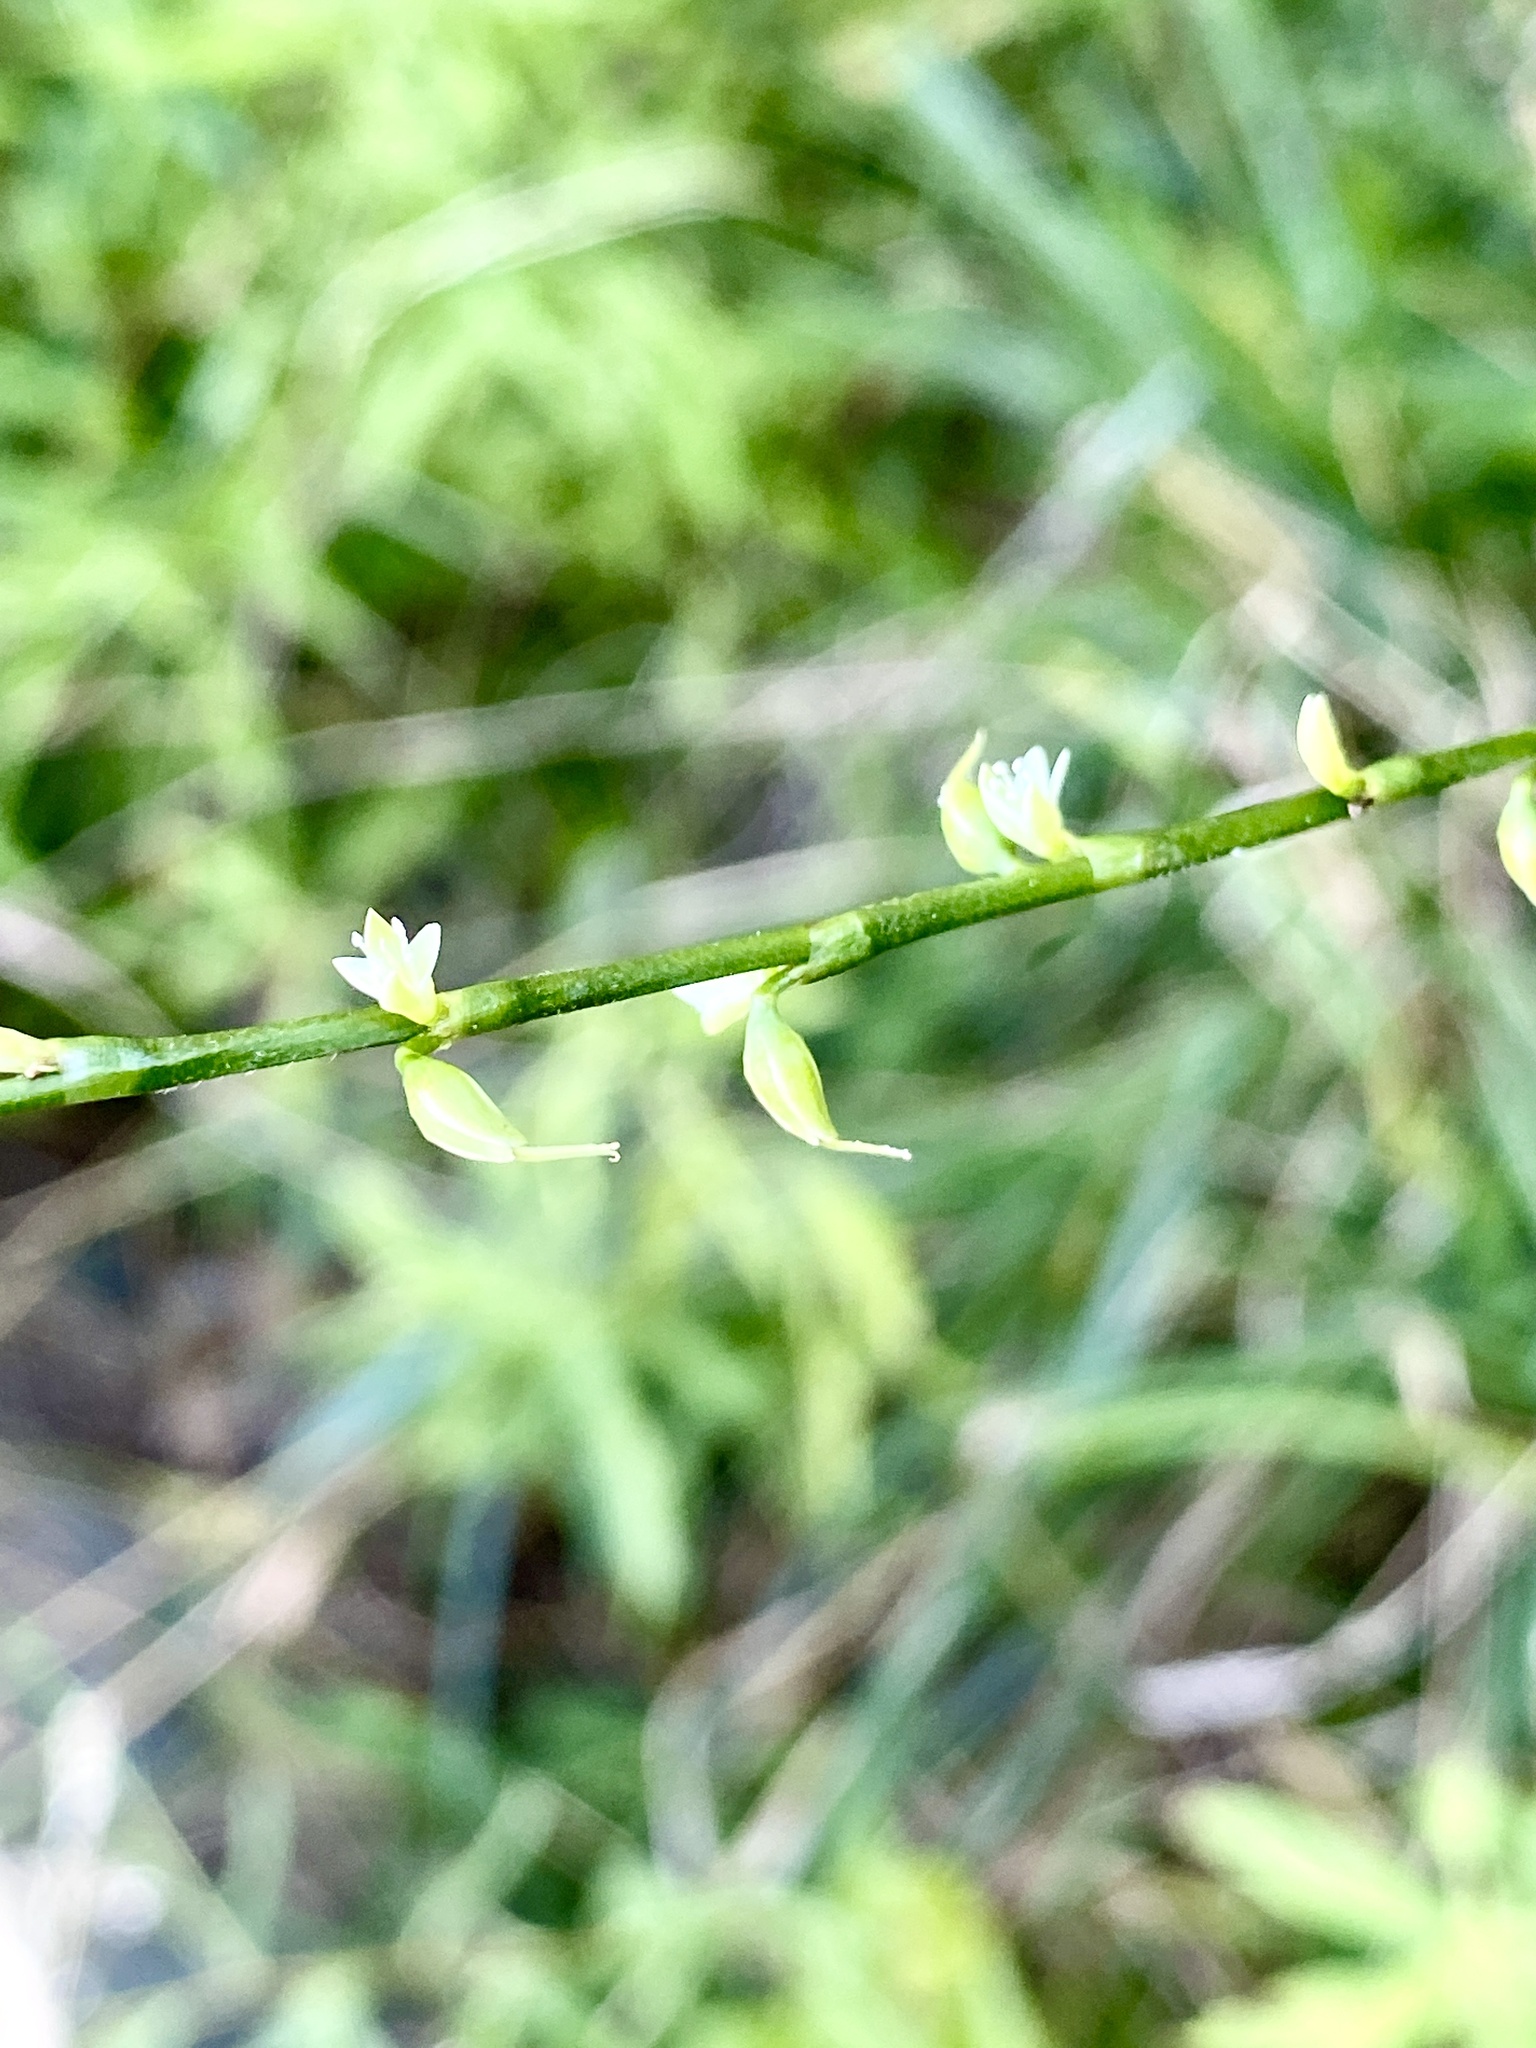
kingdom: Plantae
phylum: Tracheophyta
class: Magnoliopsida
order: Caryophyllales
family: Polygonaceae
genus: Persicaria
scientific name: Persicaria virginiana
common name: Jumpseed
